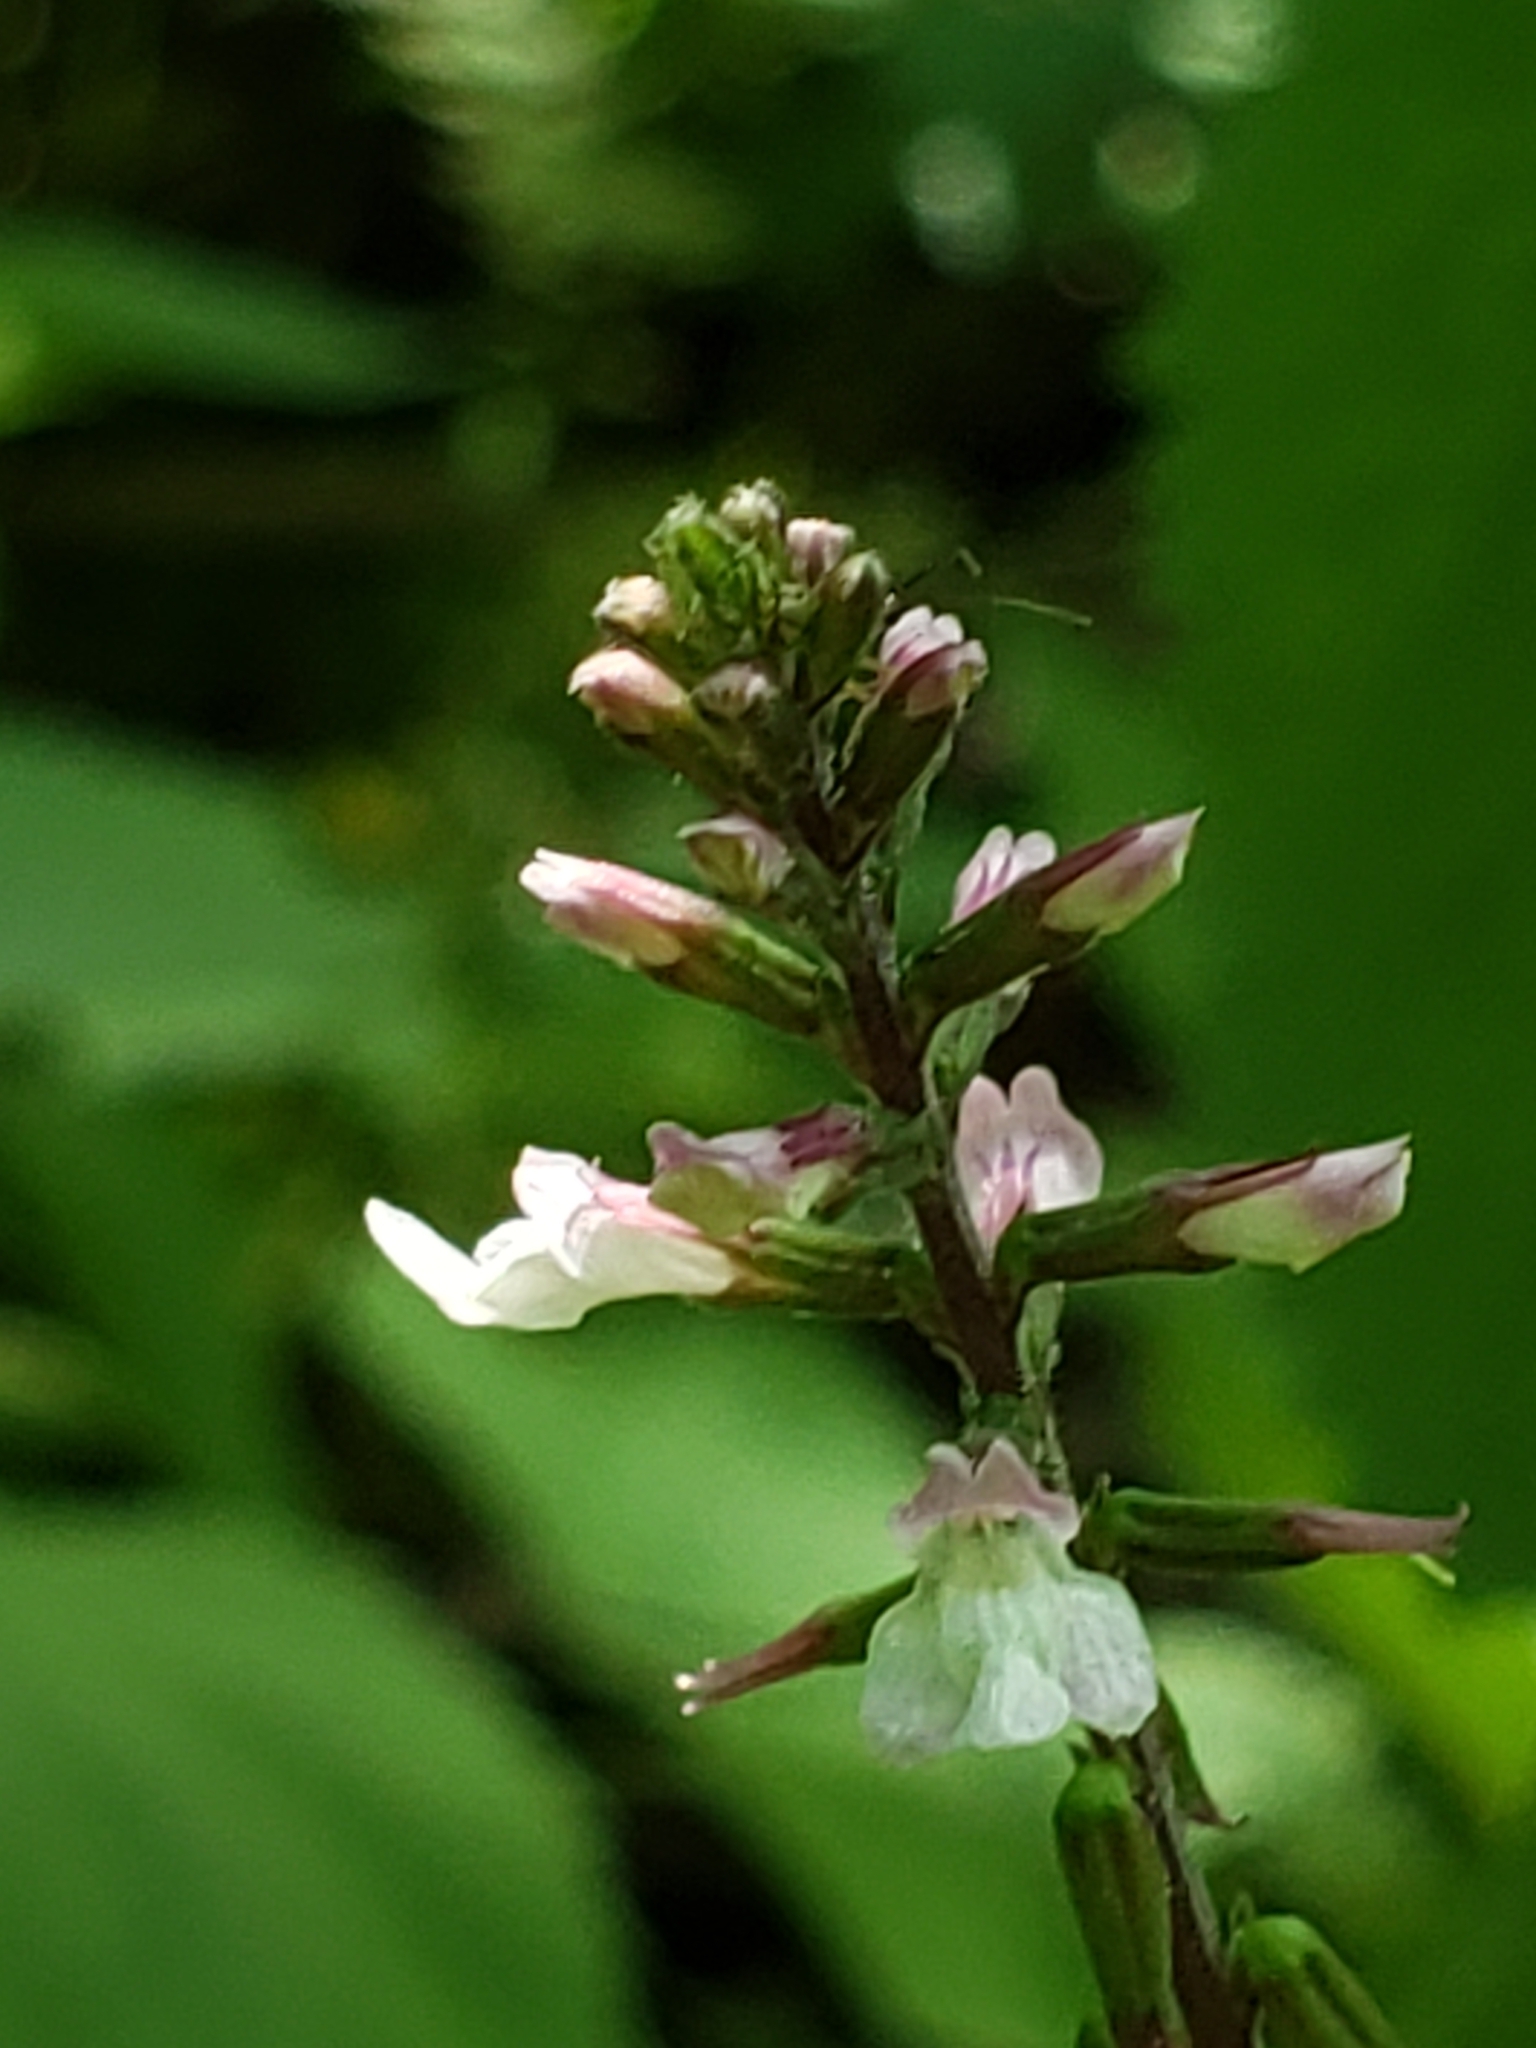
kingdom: Plantae
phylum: Tracheophyta
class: Magnoliopsida
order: Lamiales
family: Phrymaceae
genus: Phryma
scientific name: Phryma leptostachya
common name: American lopseed
